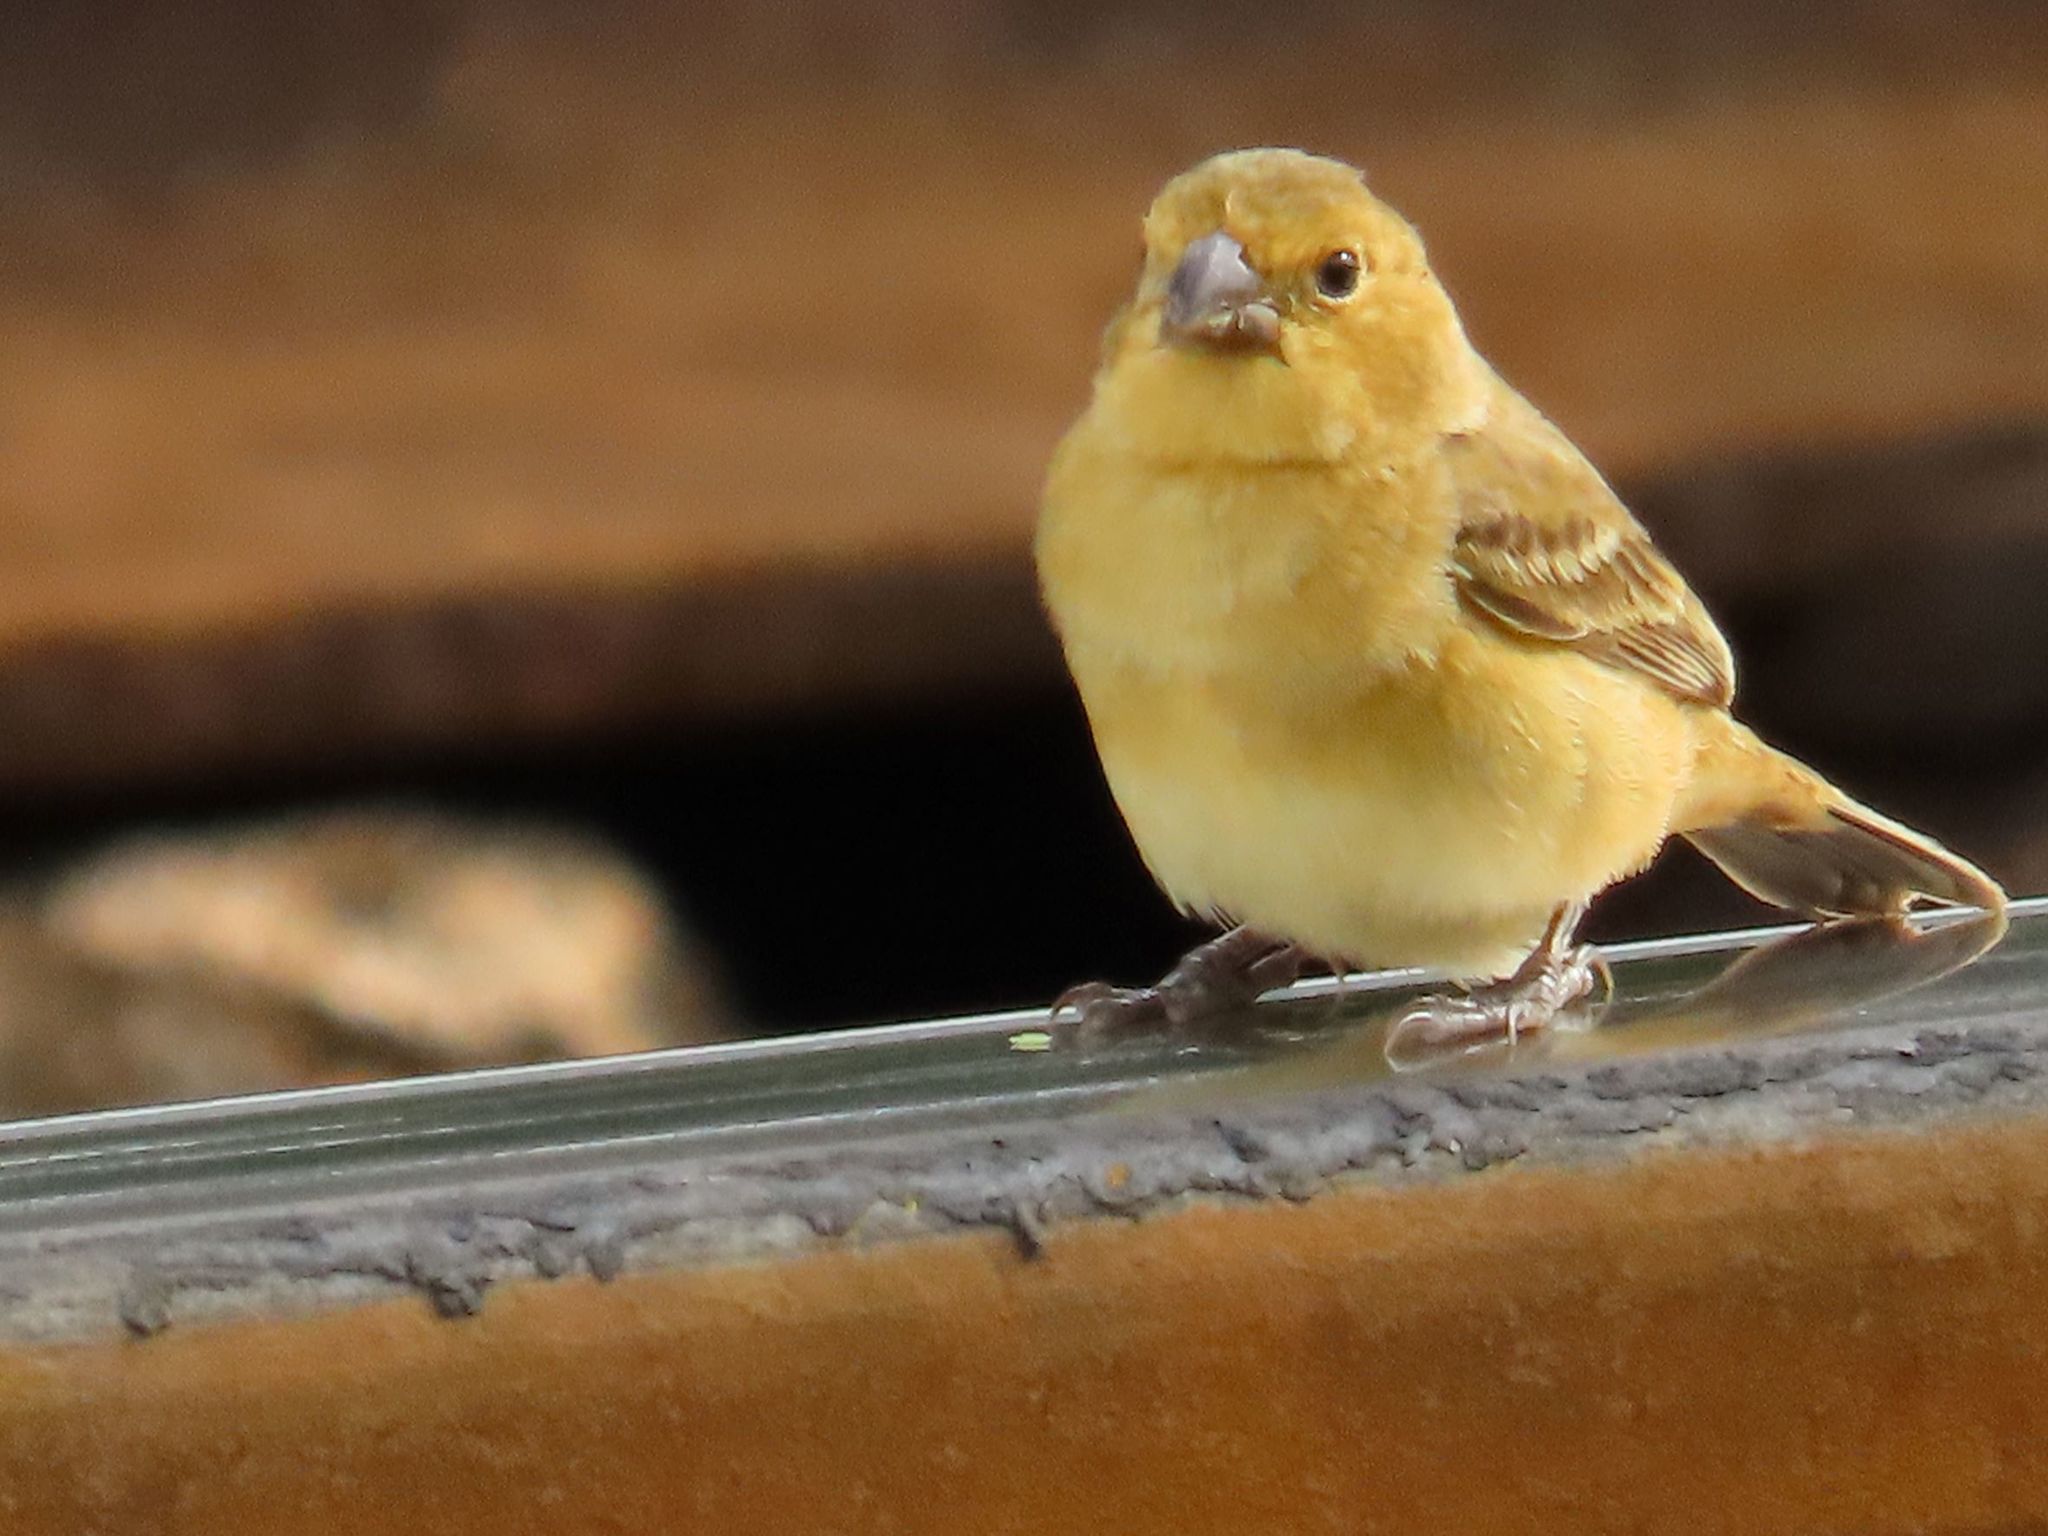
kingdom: Animalia
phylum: Chordata
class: Aves
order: Passeriformes
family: Thraupidae
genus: Sporophila
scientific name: Sporophila minuta
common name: Ruddy-breasted seedeater
